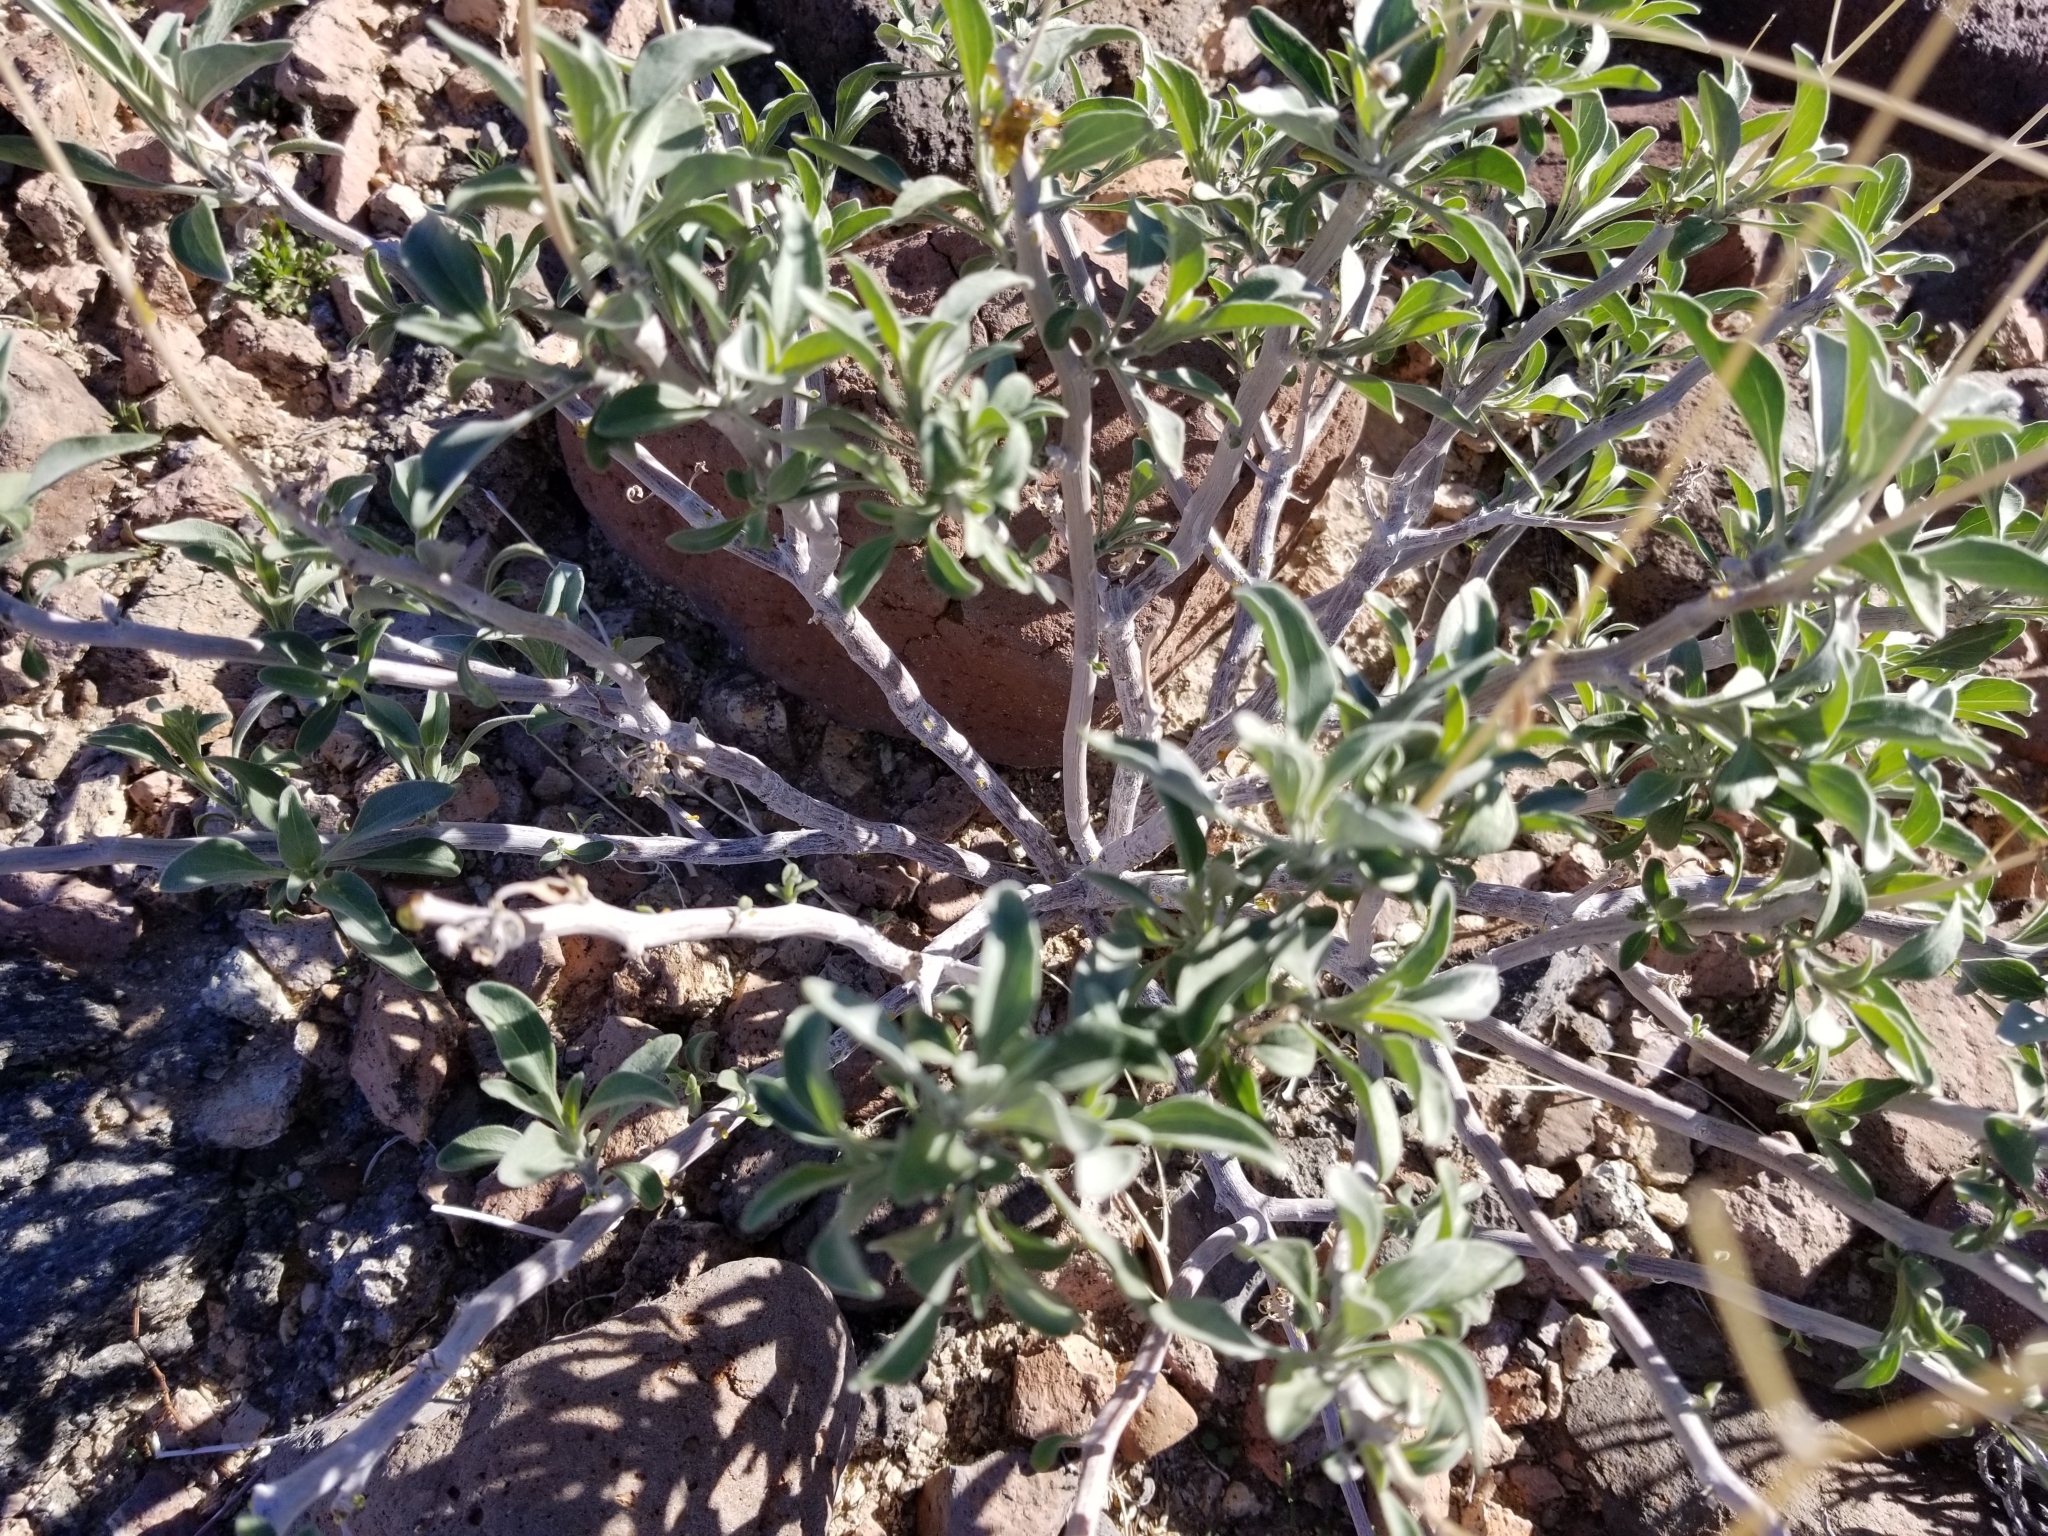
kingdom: Plantae
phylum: Tracheophyta
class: Magnoliopsida
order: Asterales
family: Asteraceae
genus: Encelia
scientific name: Encelia farinosa
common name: Brittlebush
